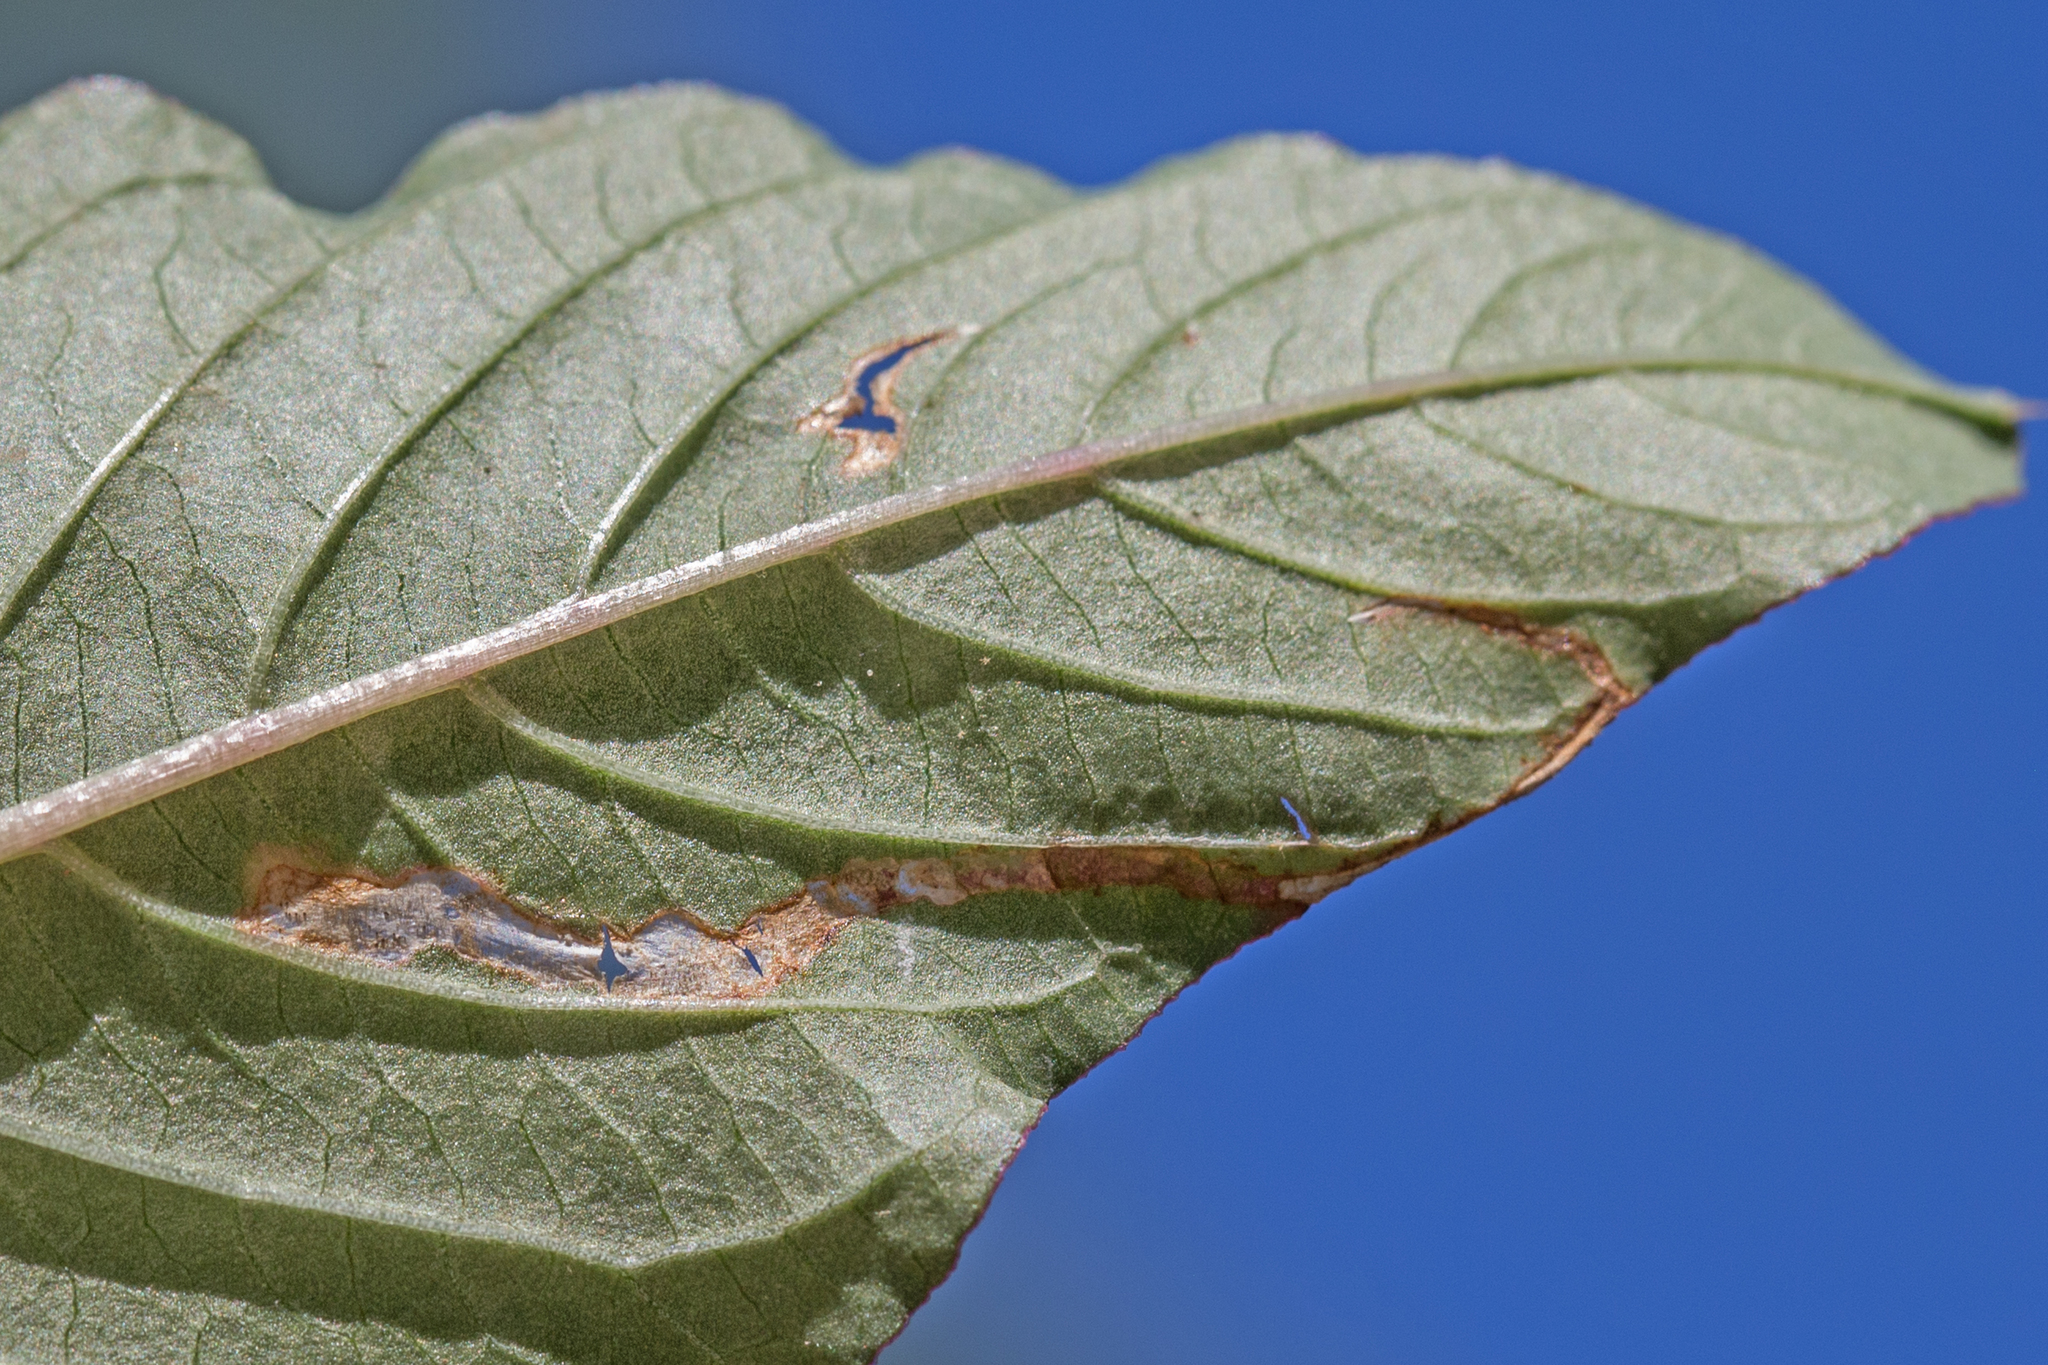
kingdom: Animalia
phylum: Arthropoda
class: Insecta
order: Diptera
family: Anthomyiidae
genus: Pegomya
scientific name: Pegomya wygodzinskyi
